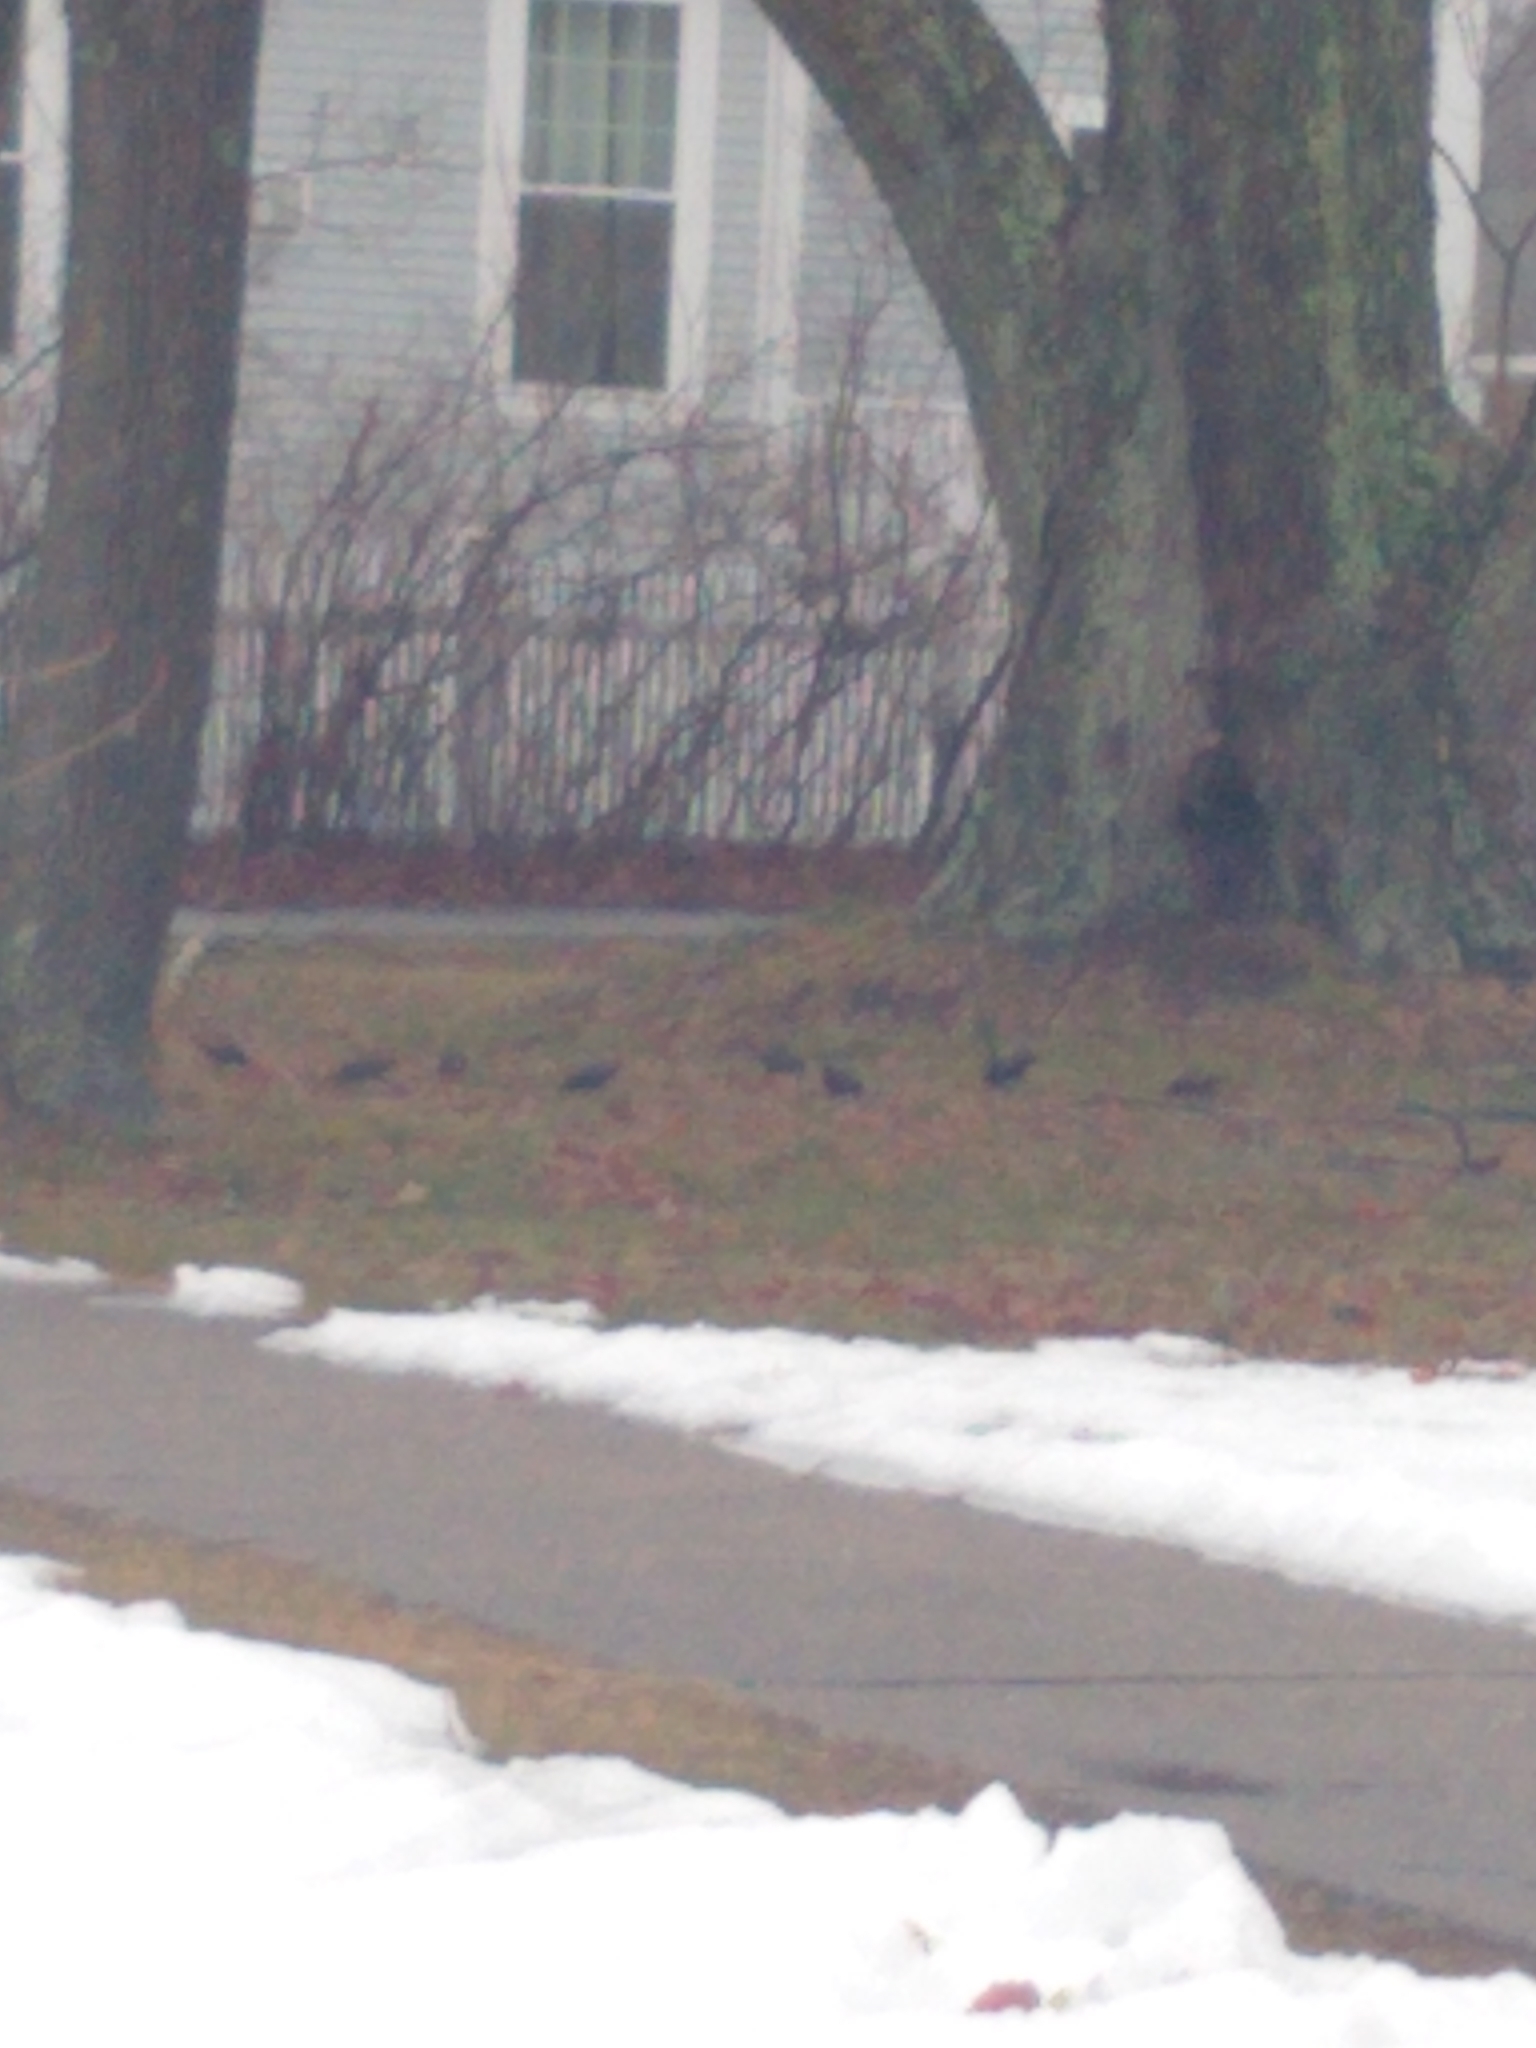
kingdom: Animalia
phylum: Chordata
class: Aves
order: Passeriformes
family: Sturnidae
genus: Sturnus
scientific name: Sturnus vulgaris
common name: Common starling
